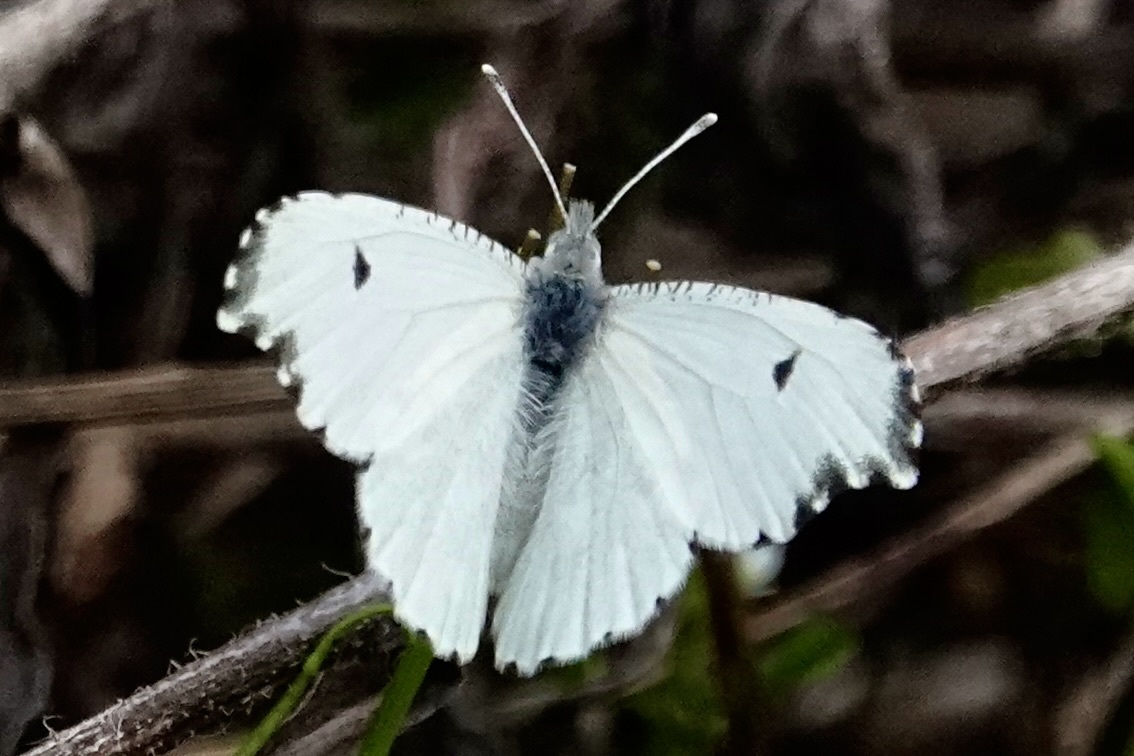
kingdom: Animalia
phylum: Arthropoda
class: Insecta
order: Lepidoptera
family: Pieridae
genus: Anthocharis
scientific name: Anthocharis midea
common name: Falcate orangetip
